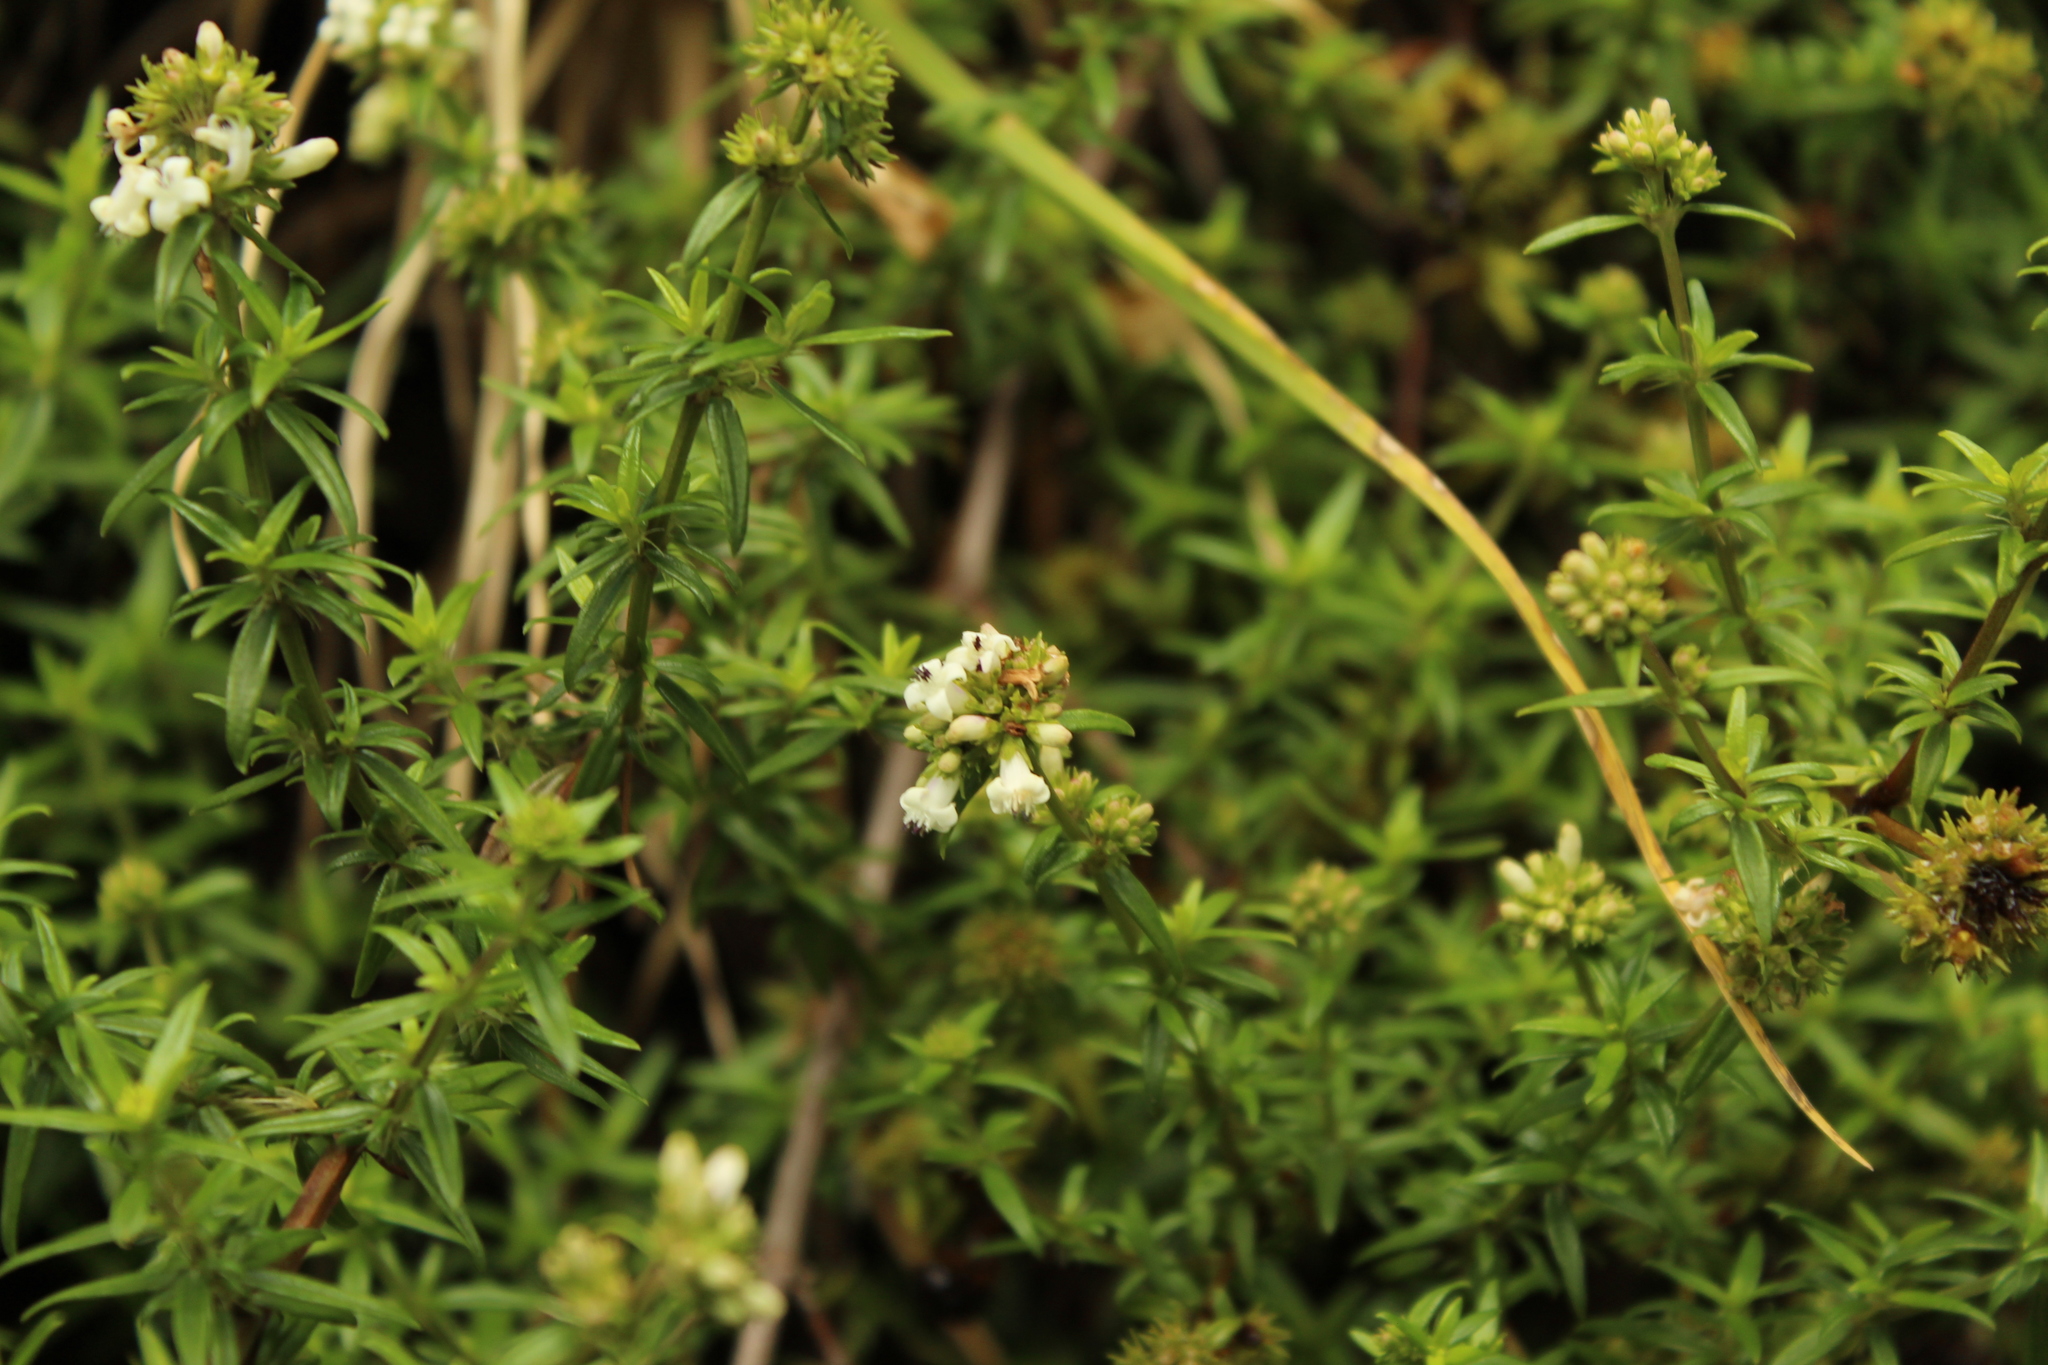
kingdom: Plantae
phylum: Tracheophyta
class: Magnoliopsida
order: Gentianales
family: Rubiaceae
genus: Galianthe
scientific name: Galianthe bogotensis
